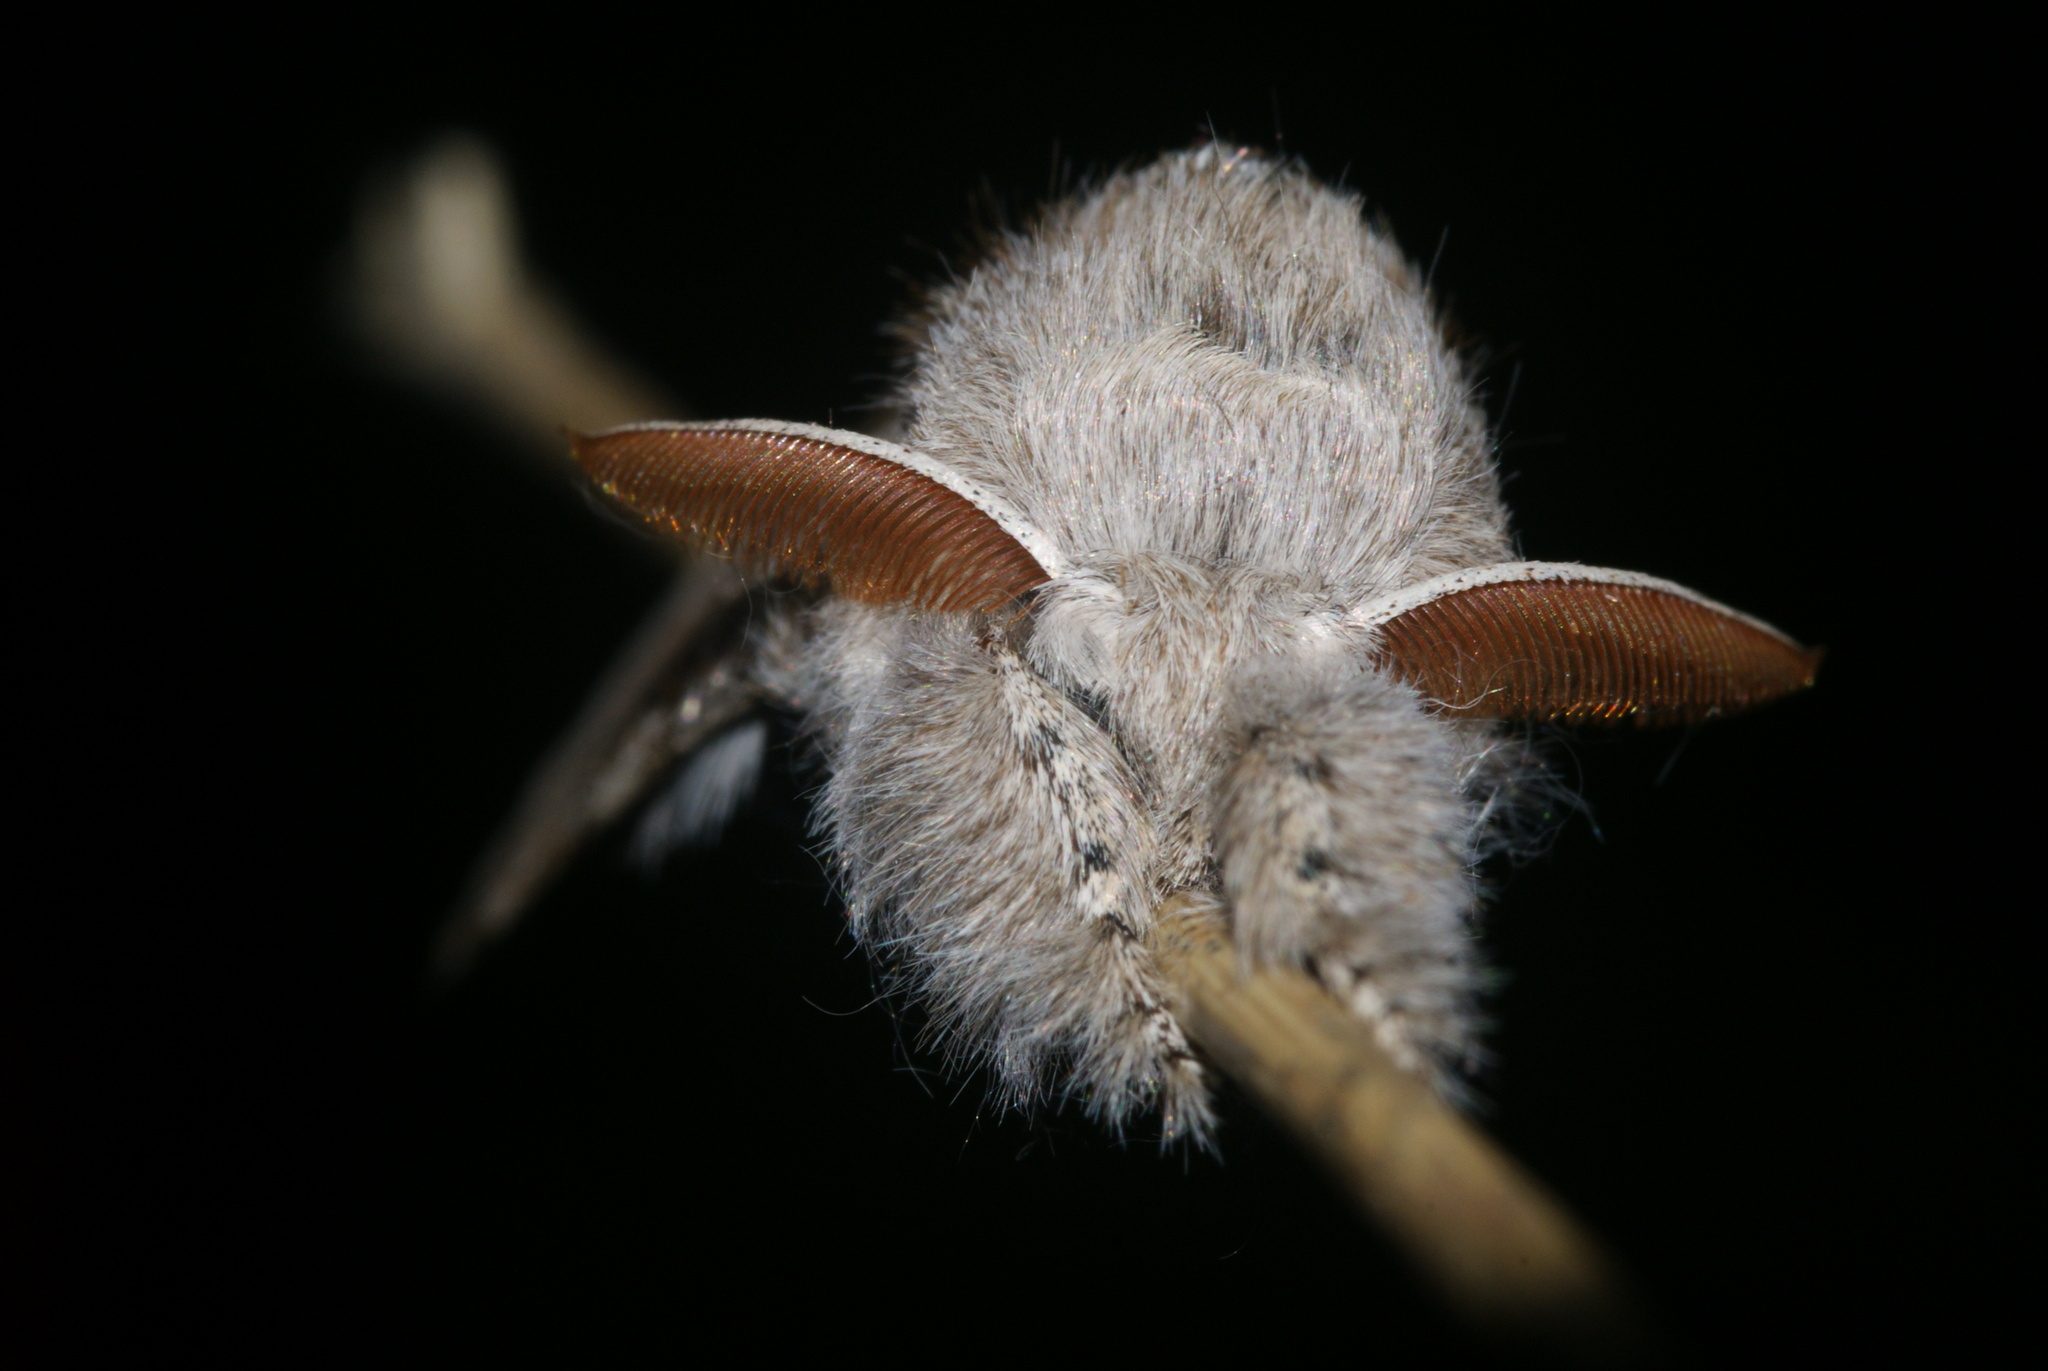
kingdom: Animalia
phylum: Arthropoda
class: Insecta
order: Lepidoptera
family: Erebidae
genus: Calliteara
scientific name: Calliteara pudibunda
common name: Pale tussock
